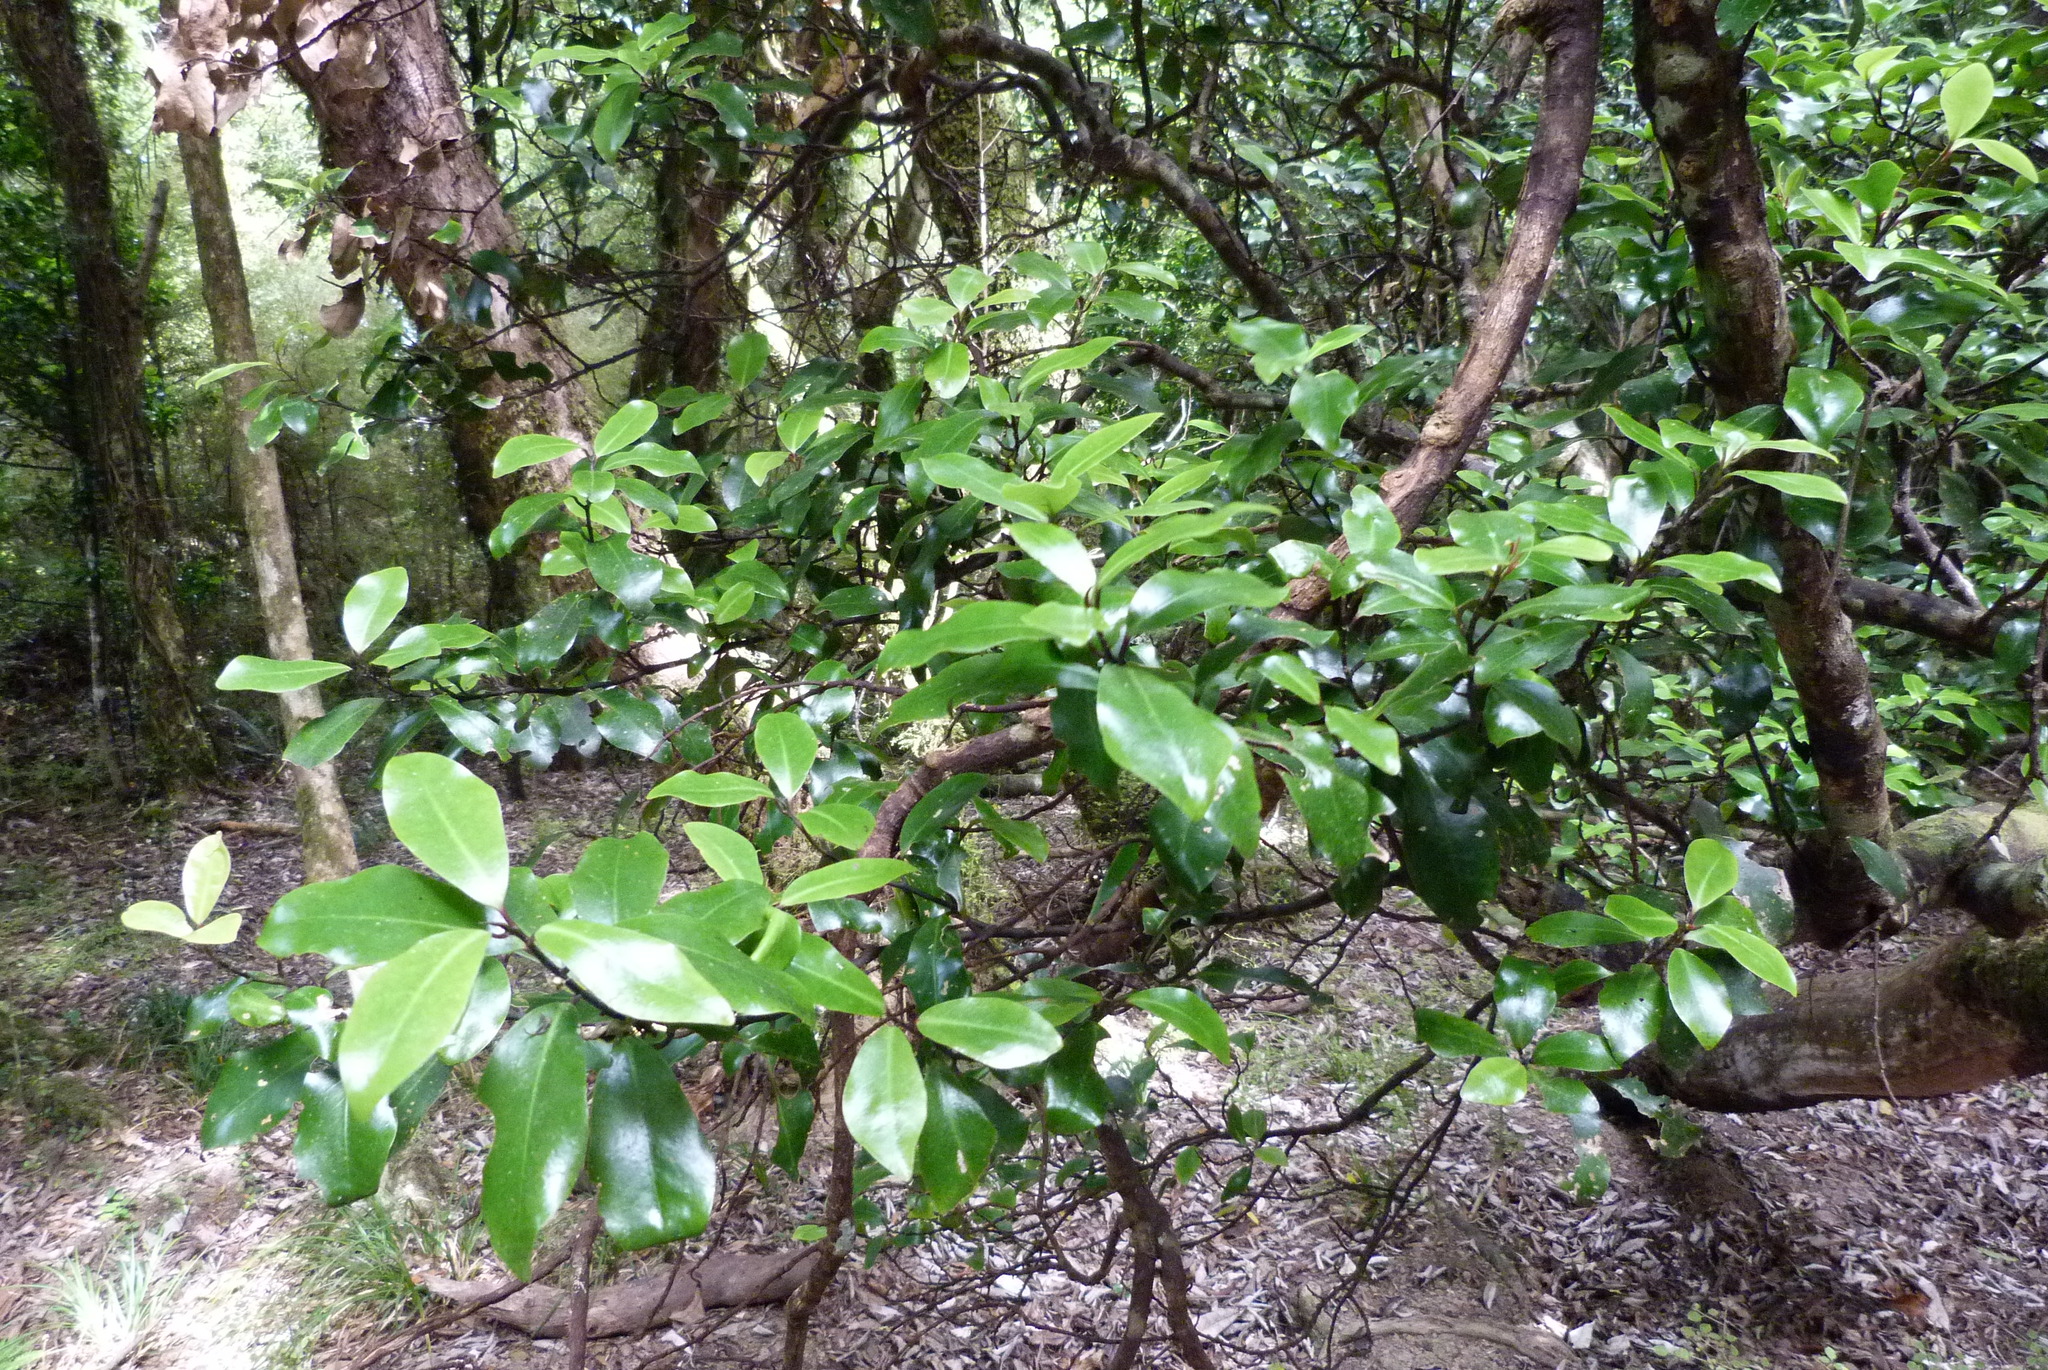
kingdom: Plantae
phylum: Tracheophyta
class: Magnoliopsida
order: Canellales
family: Winteraceae
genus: Pseudowintera
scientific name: Pseudowintera axillaris
